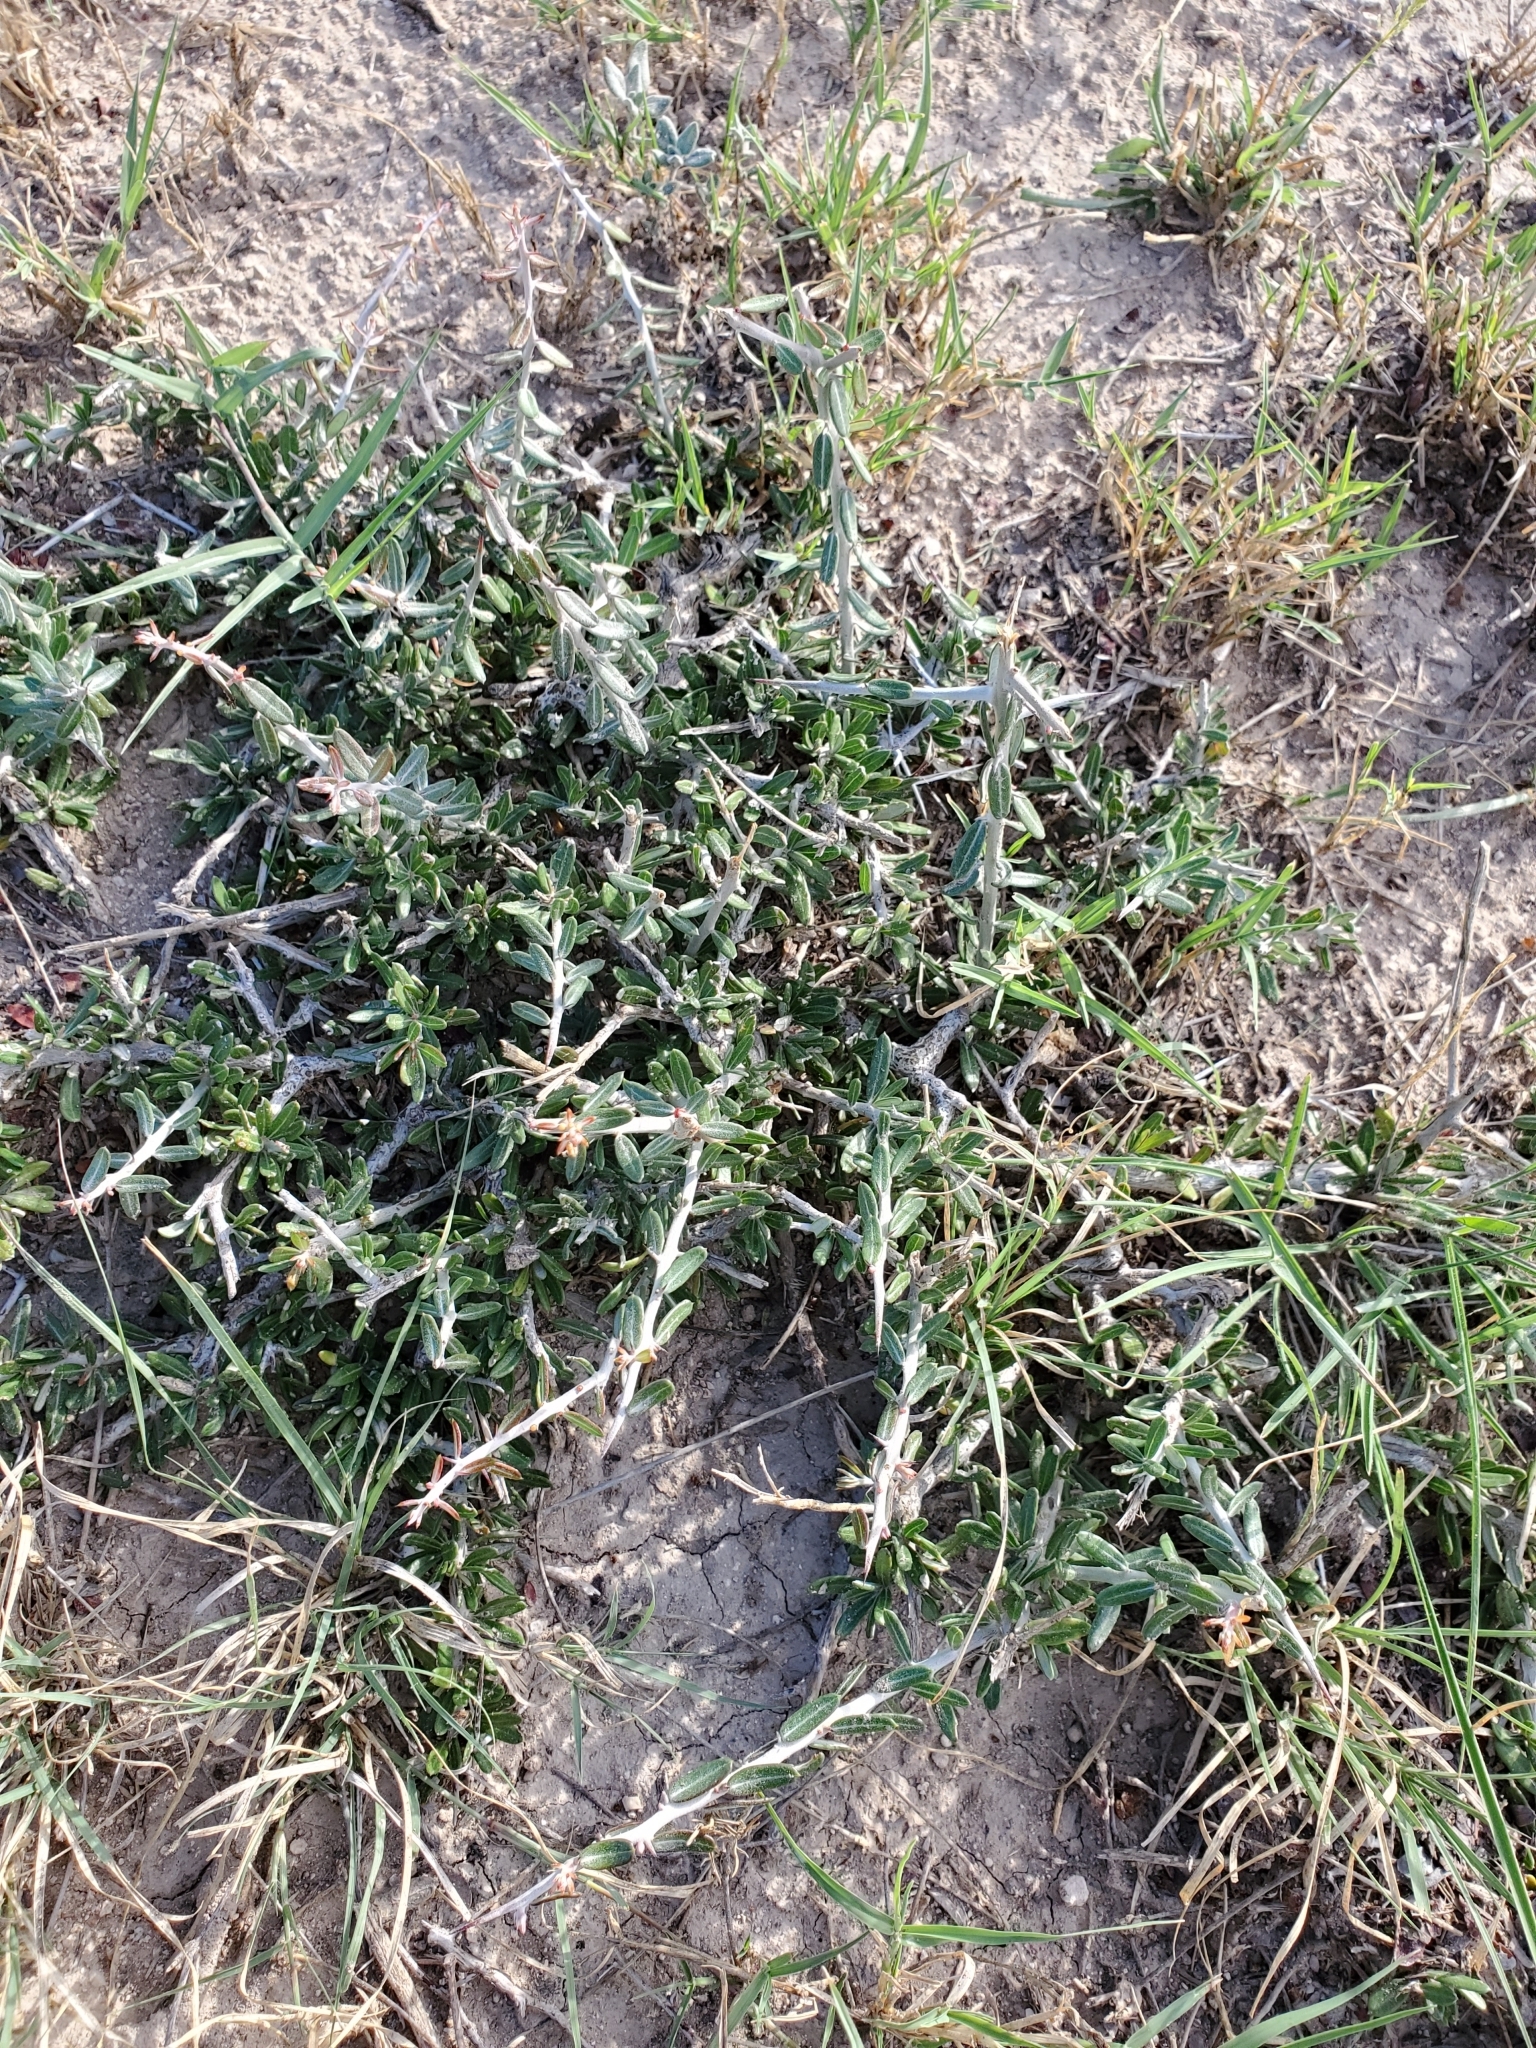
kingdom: Plantae
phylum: Tracheophyta
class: Magnoliopsida
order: Sapindales
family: Simaroubaceae
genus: Castela
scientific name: Castela erecta
